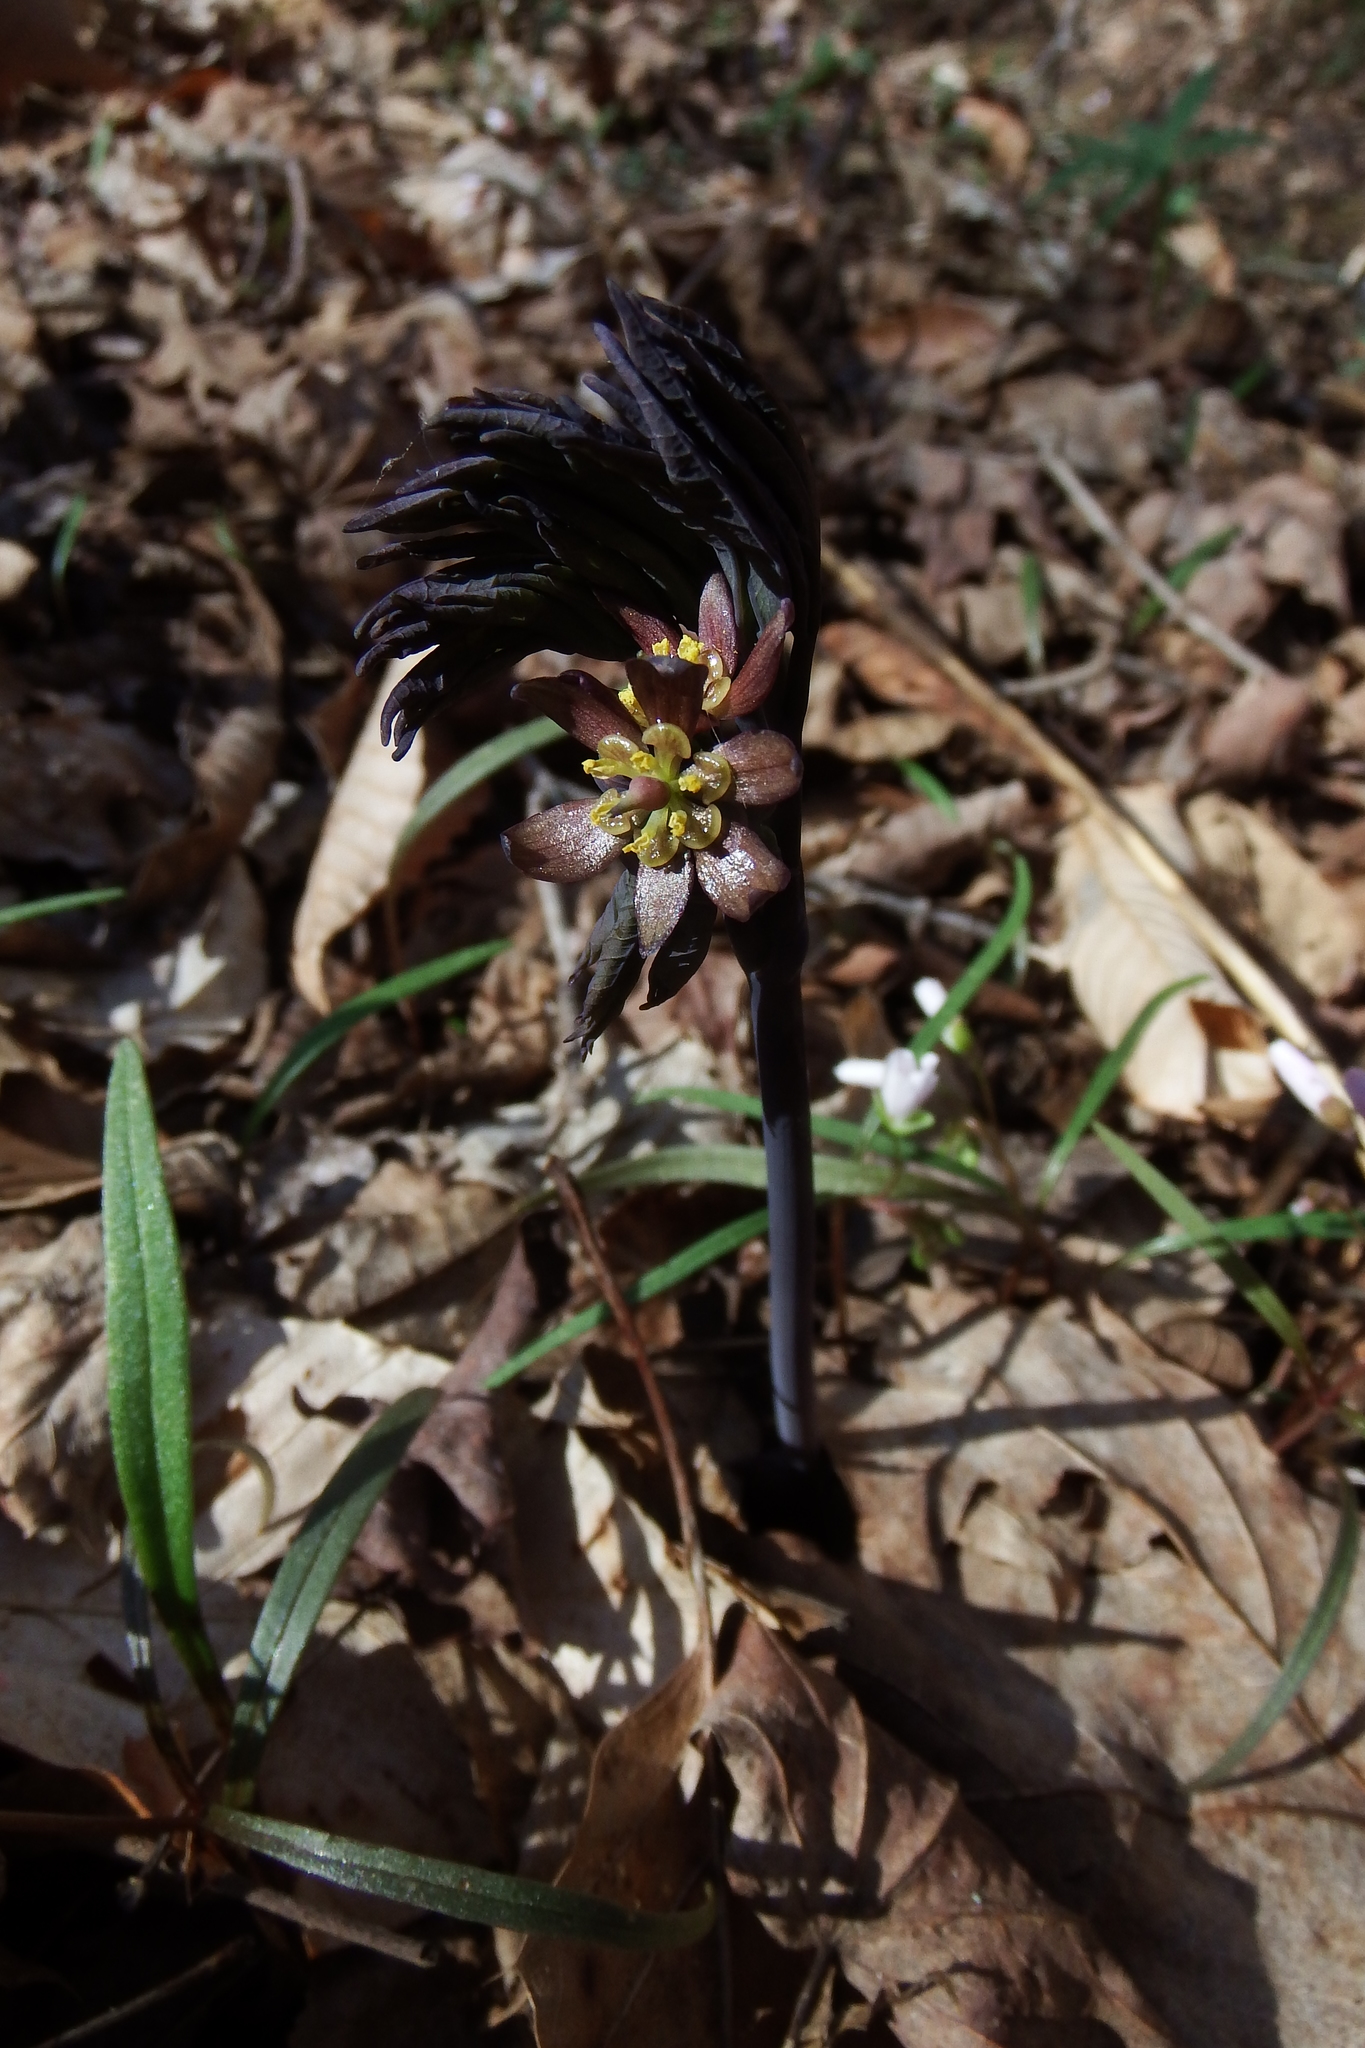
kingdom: Plantae
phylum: Tracheophyta
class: Magnoliopsida
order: Ranunculales
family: Berberidaceae
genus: Caulophyllum
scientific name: Caulophyllum giganteum
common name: Blue cohosh
